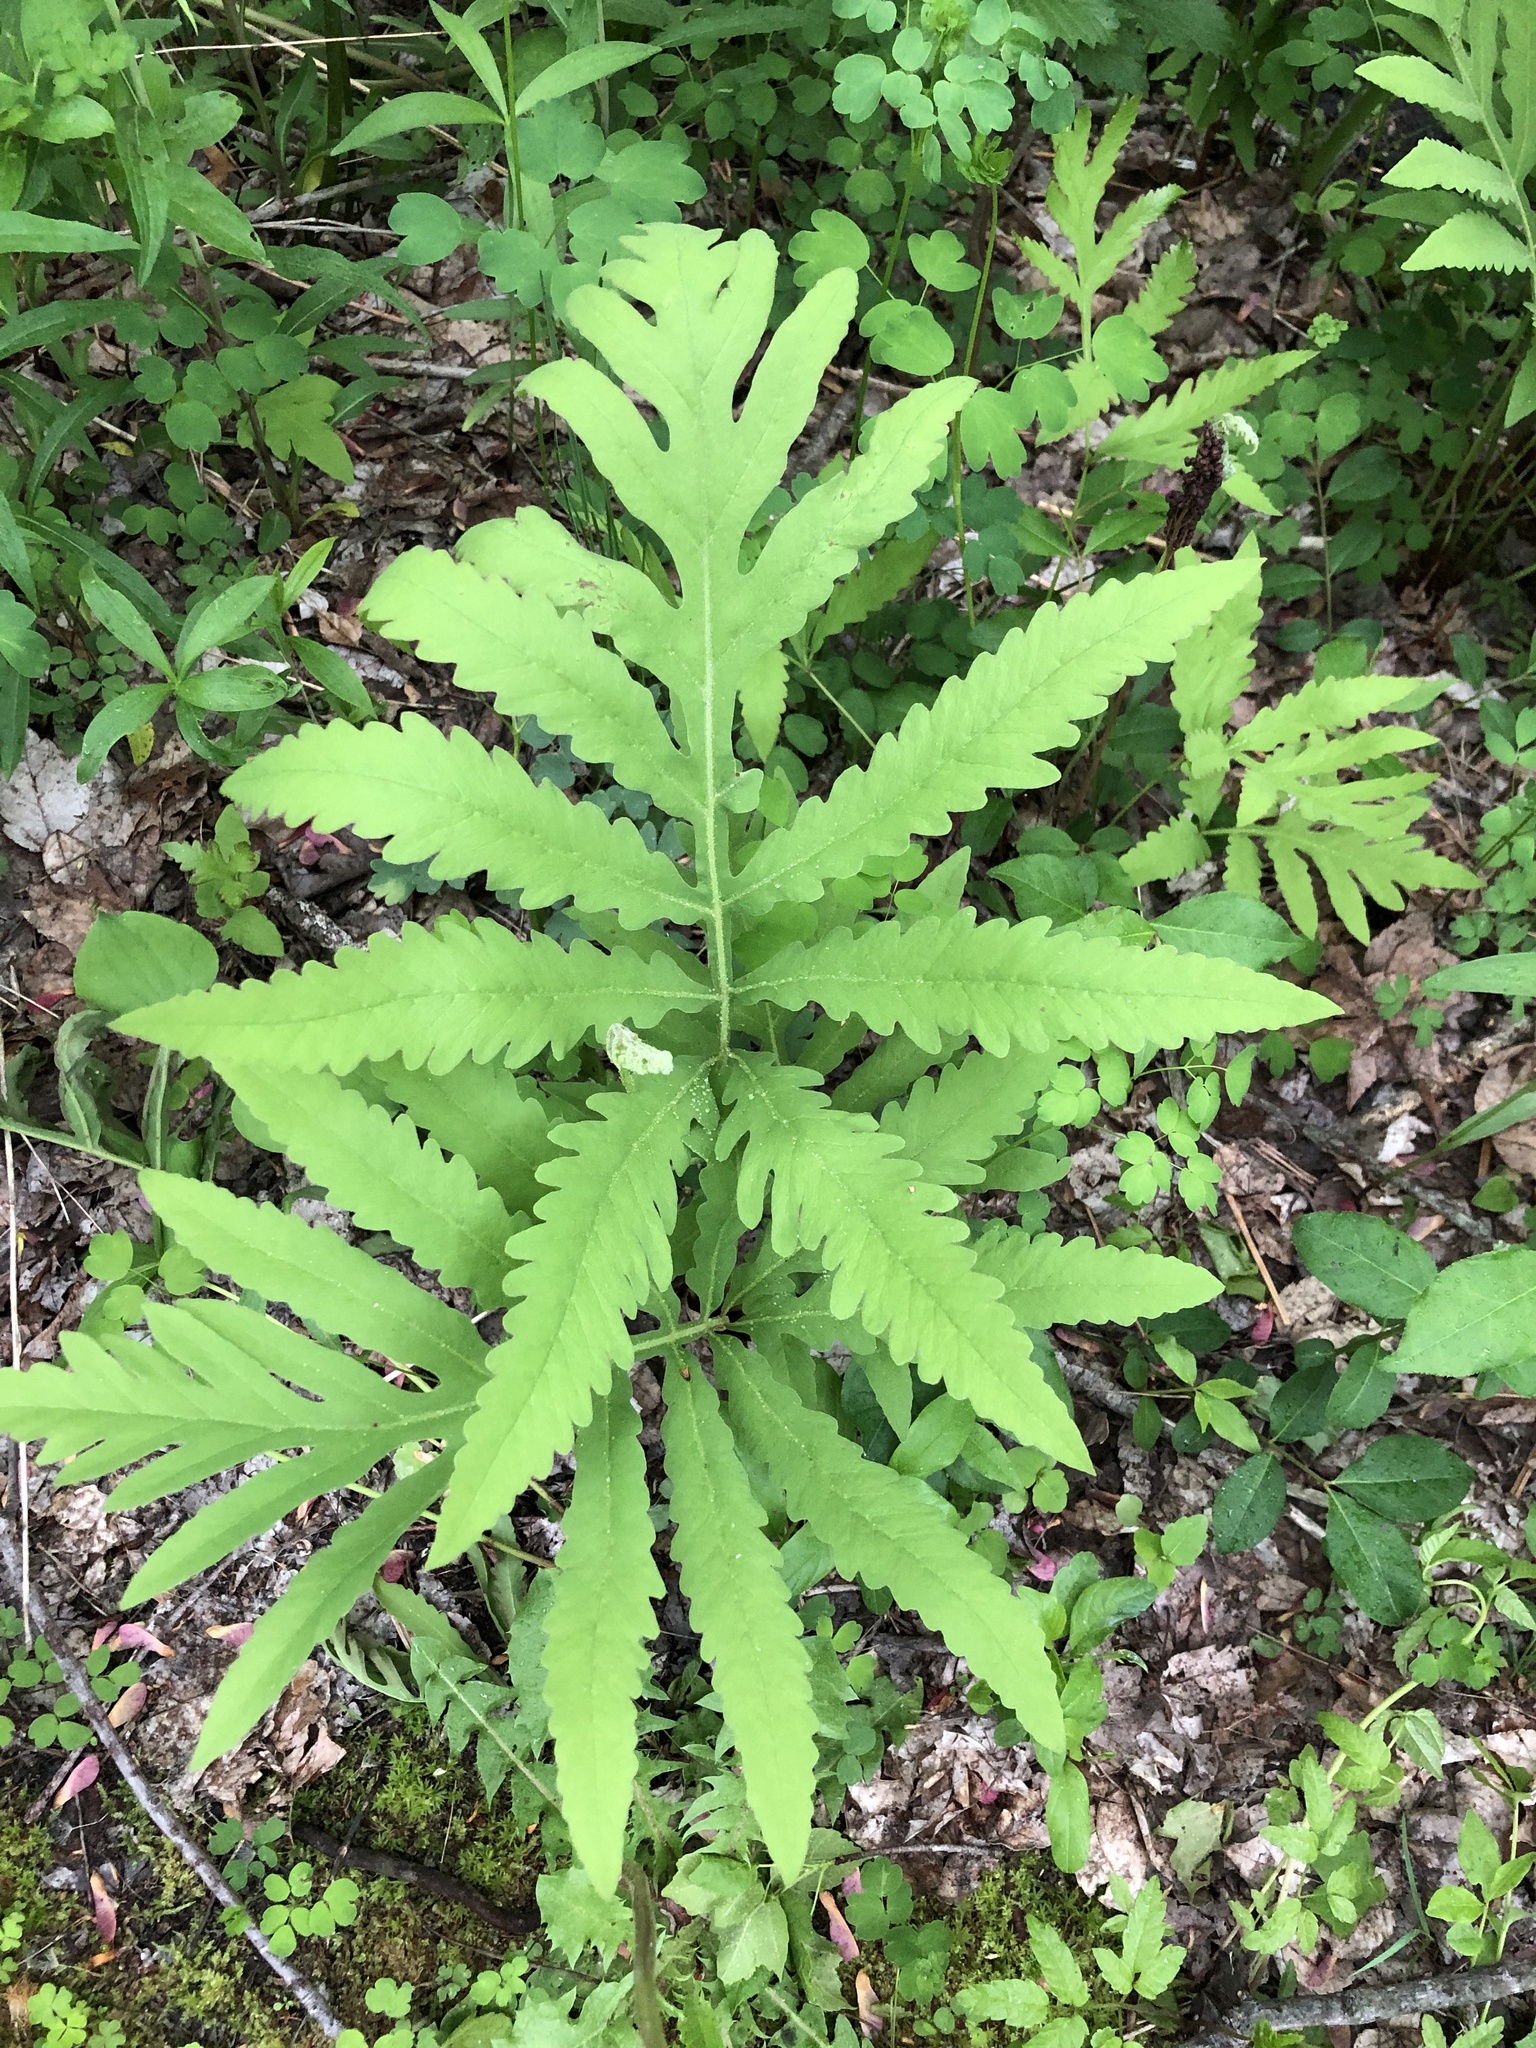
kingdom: Plantae
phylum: Tracheophyta
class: Polypodiopsida
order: Polypodiales
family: Onocleaceae
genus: Onoclea
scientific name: Onoclea sensibilis
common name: Sensitive fern
